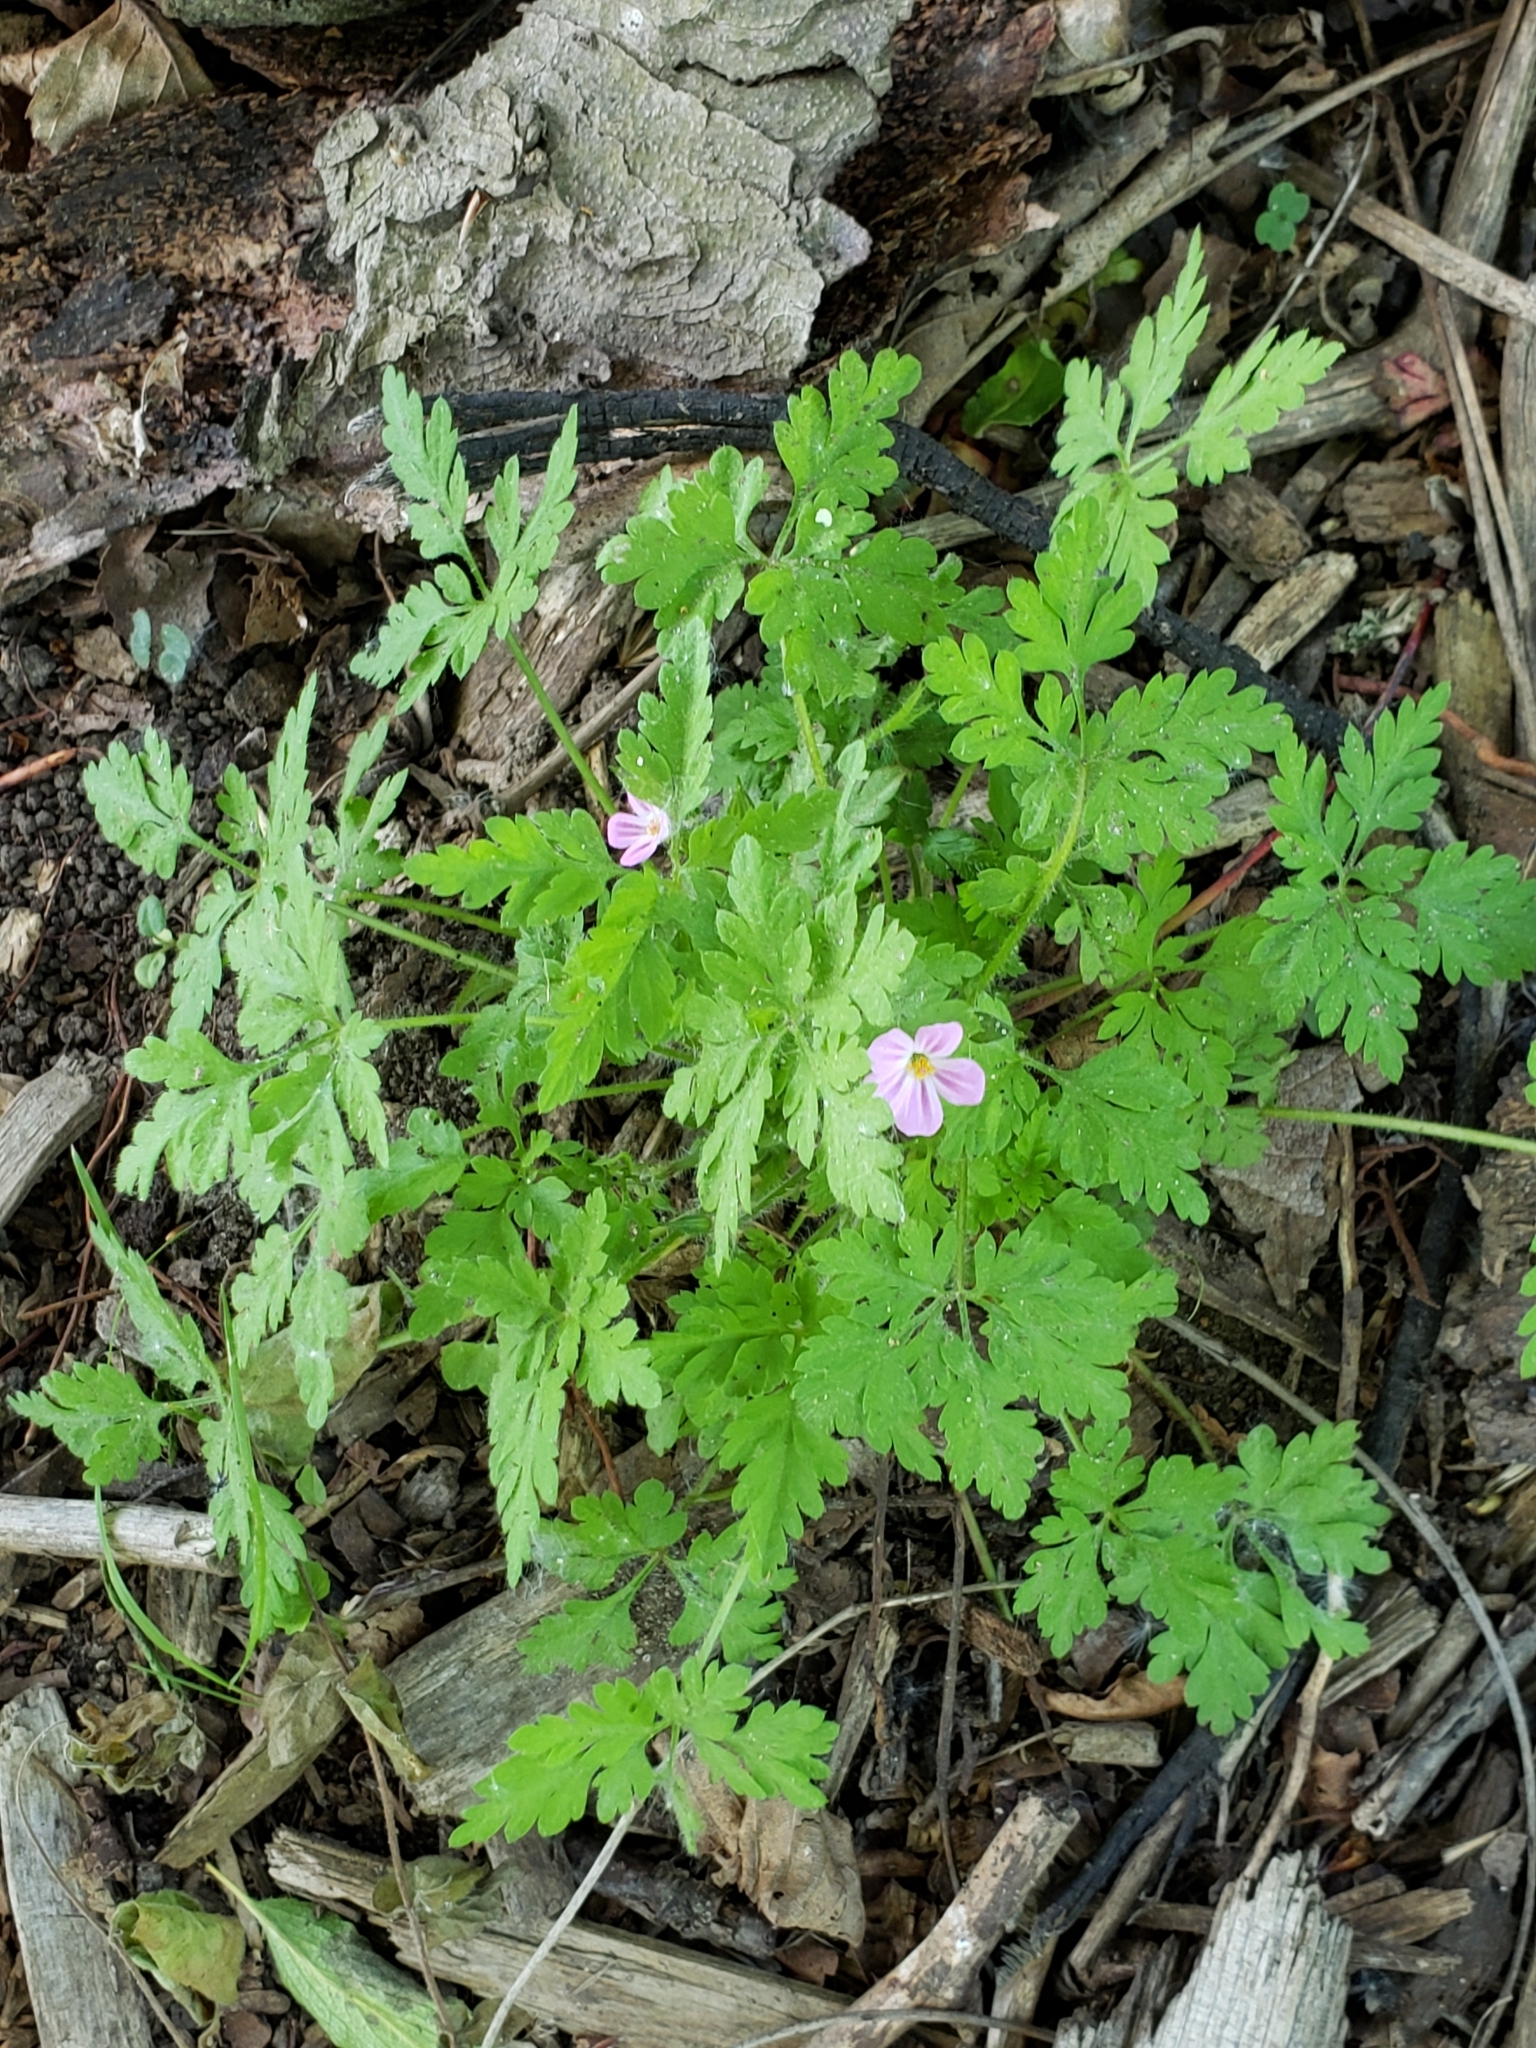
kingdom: Plantae
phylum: Tracheophyta
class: Magnoliopsida
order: Geraniales
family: Geraniaceae
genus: Geranium
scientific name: Geranium robertianum
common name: Herb-robert
